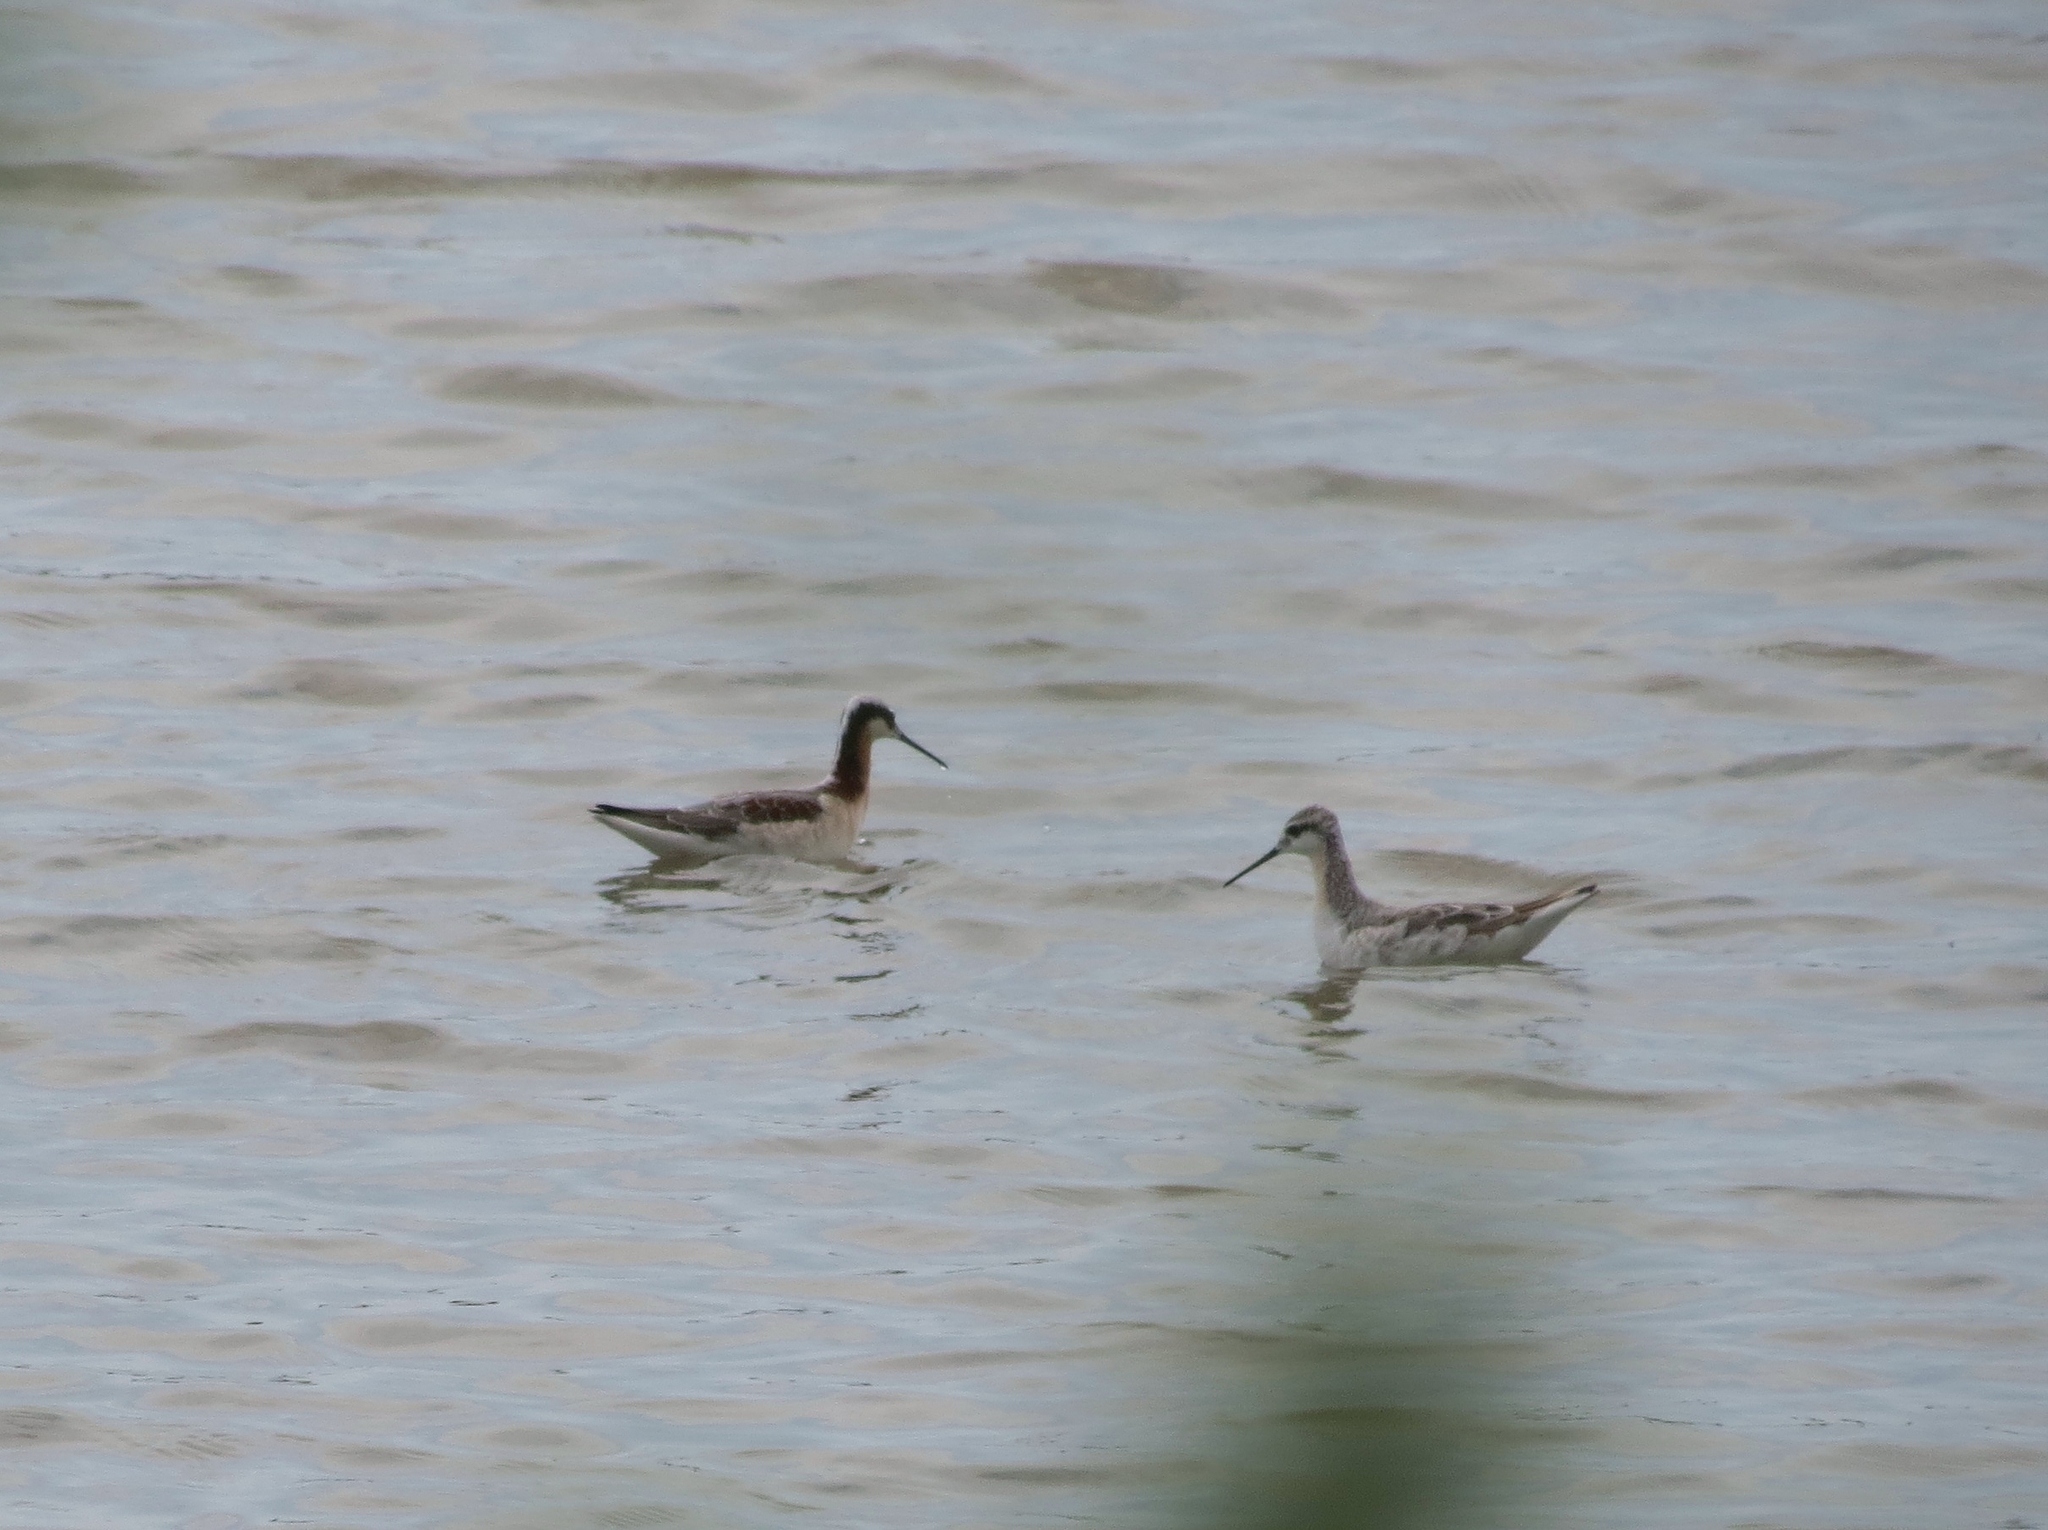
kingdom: Animalia
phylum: Chordata
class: Aves
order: Charadriiformes
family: Scolopacidae
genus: Phalaropus
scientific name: Phalaropus tricolor
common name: Wilson's phalarope
